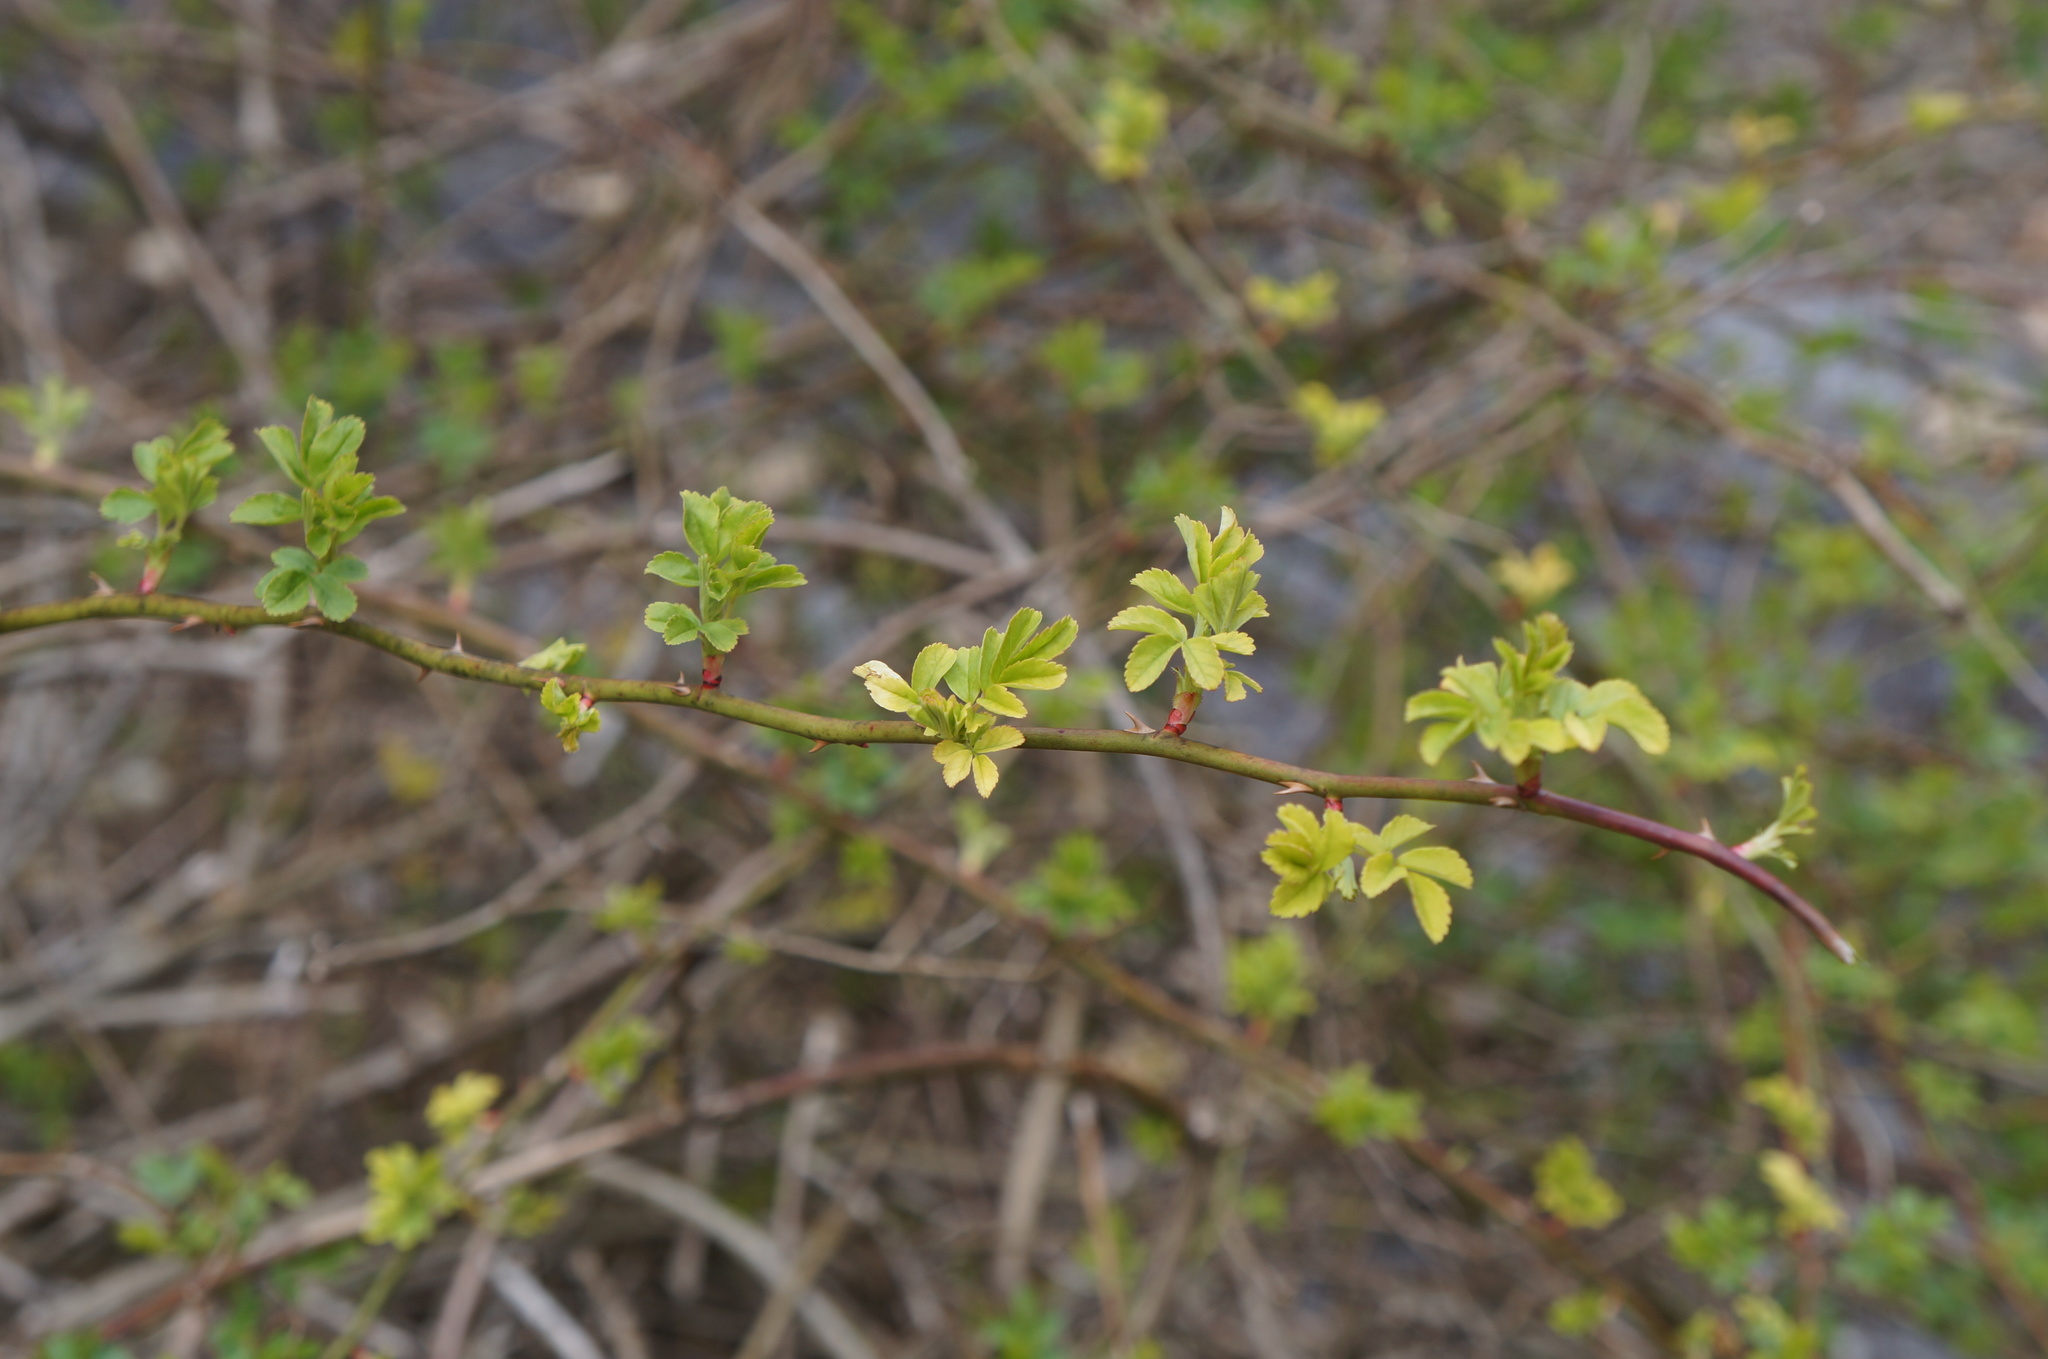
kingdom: Plantae
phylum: Tracheophyta
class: Magnoliopsida
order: Rosales
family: Rosaceae
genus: Rosa
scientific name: Rosa multiflora
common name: Multiflora rose
